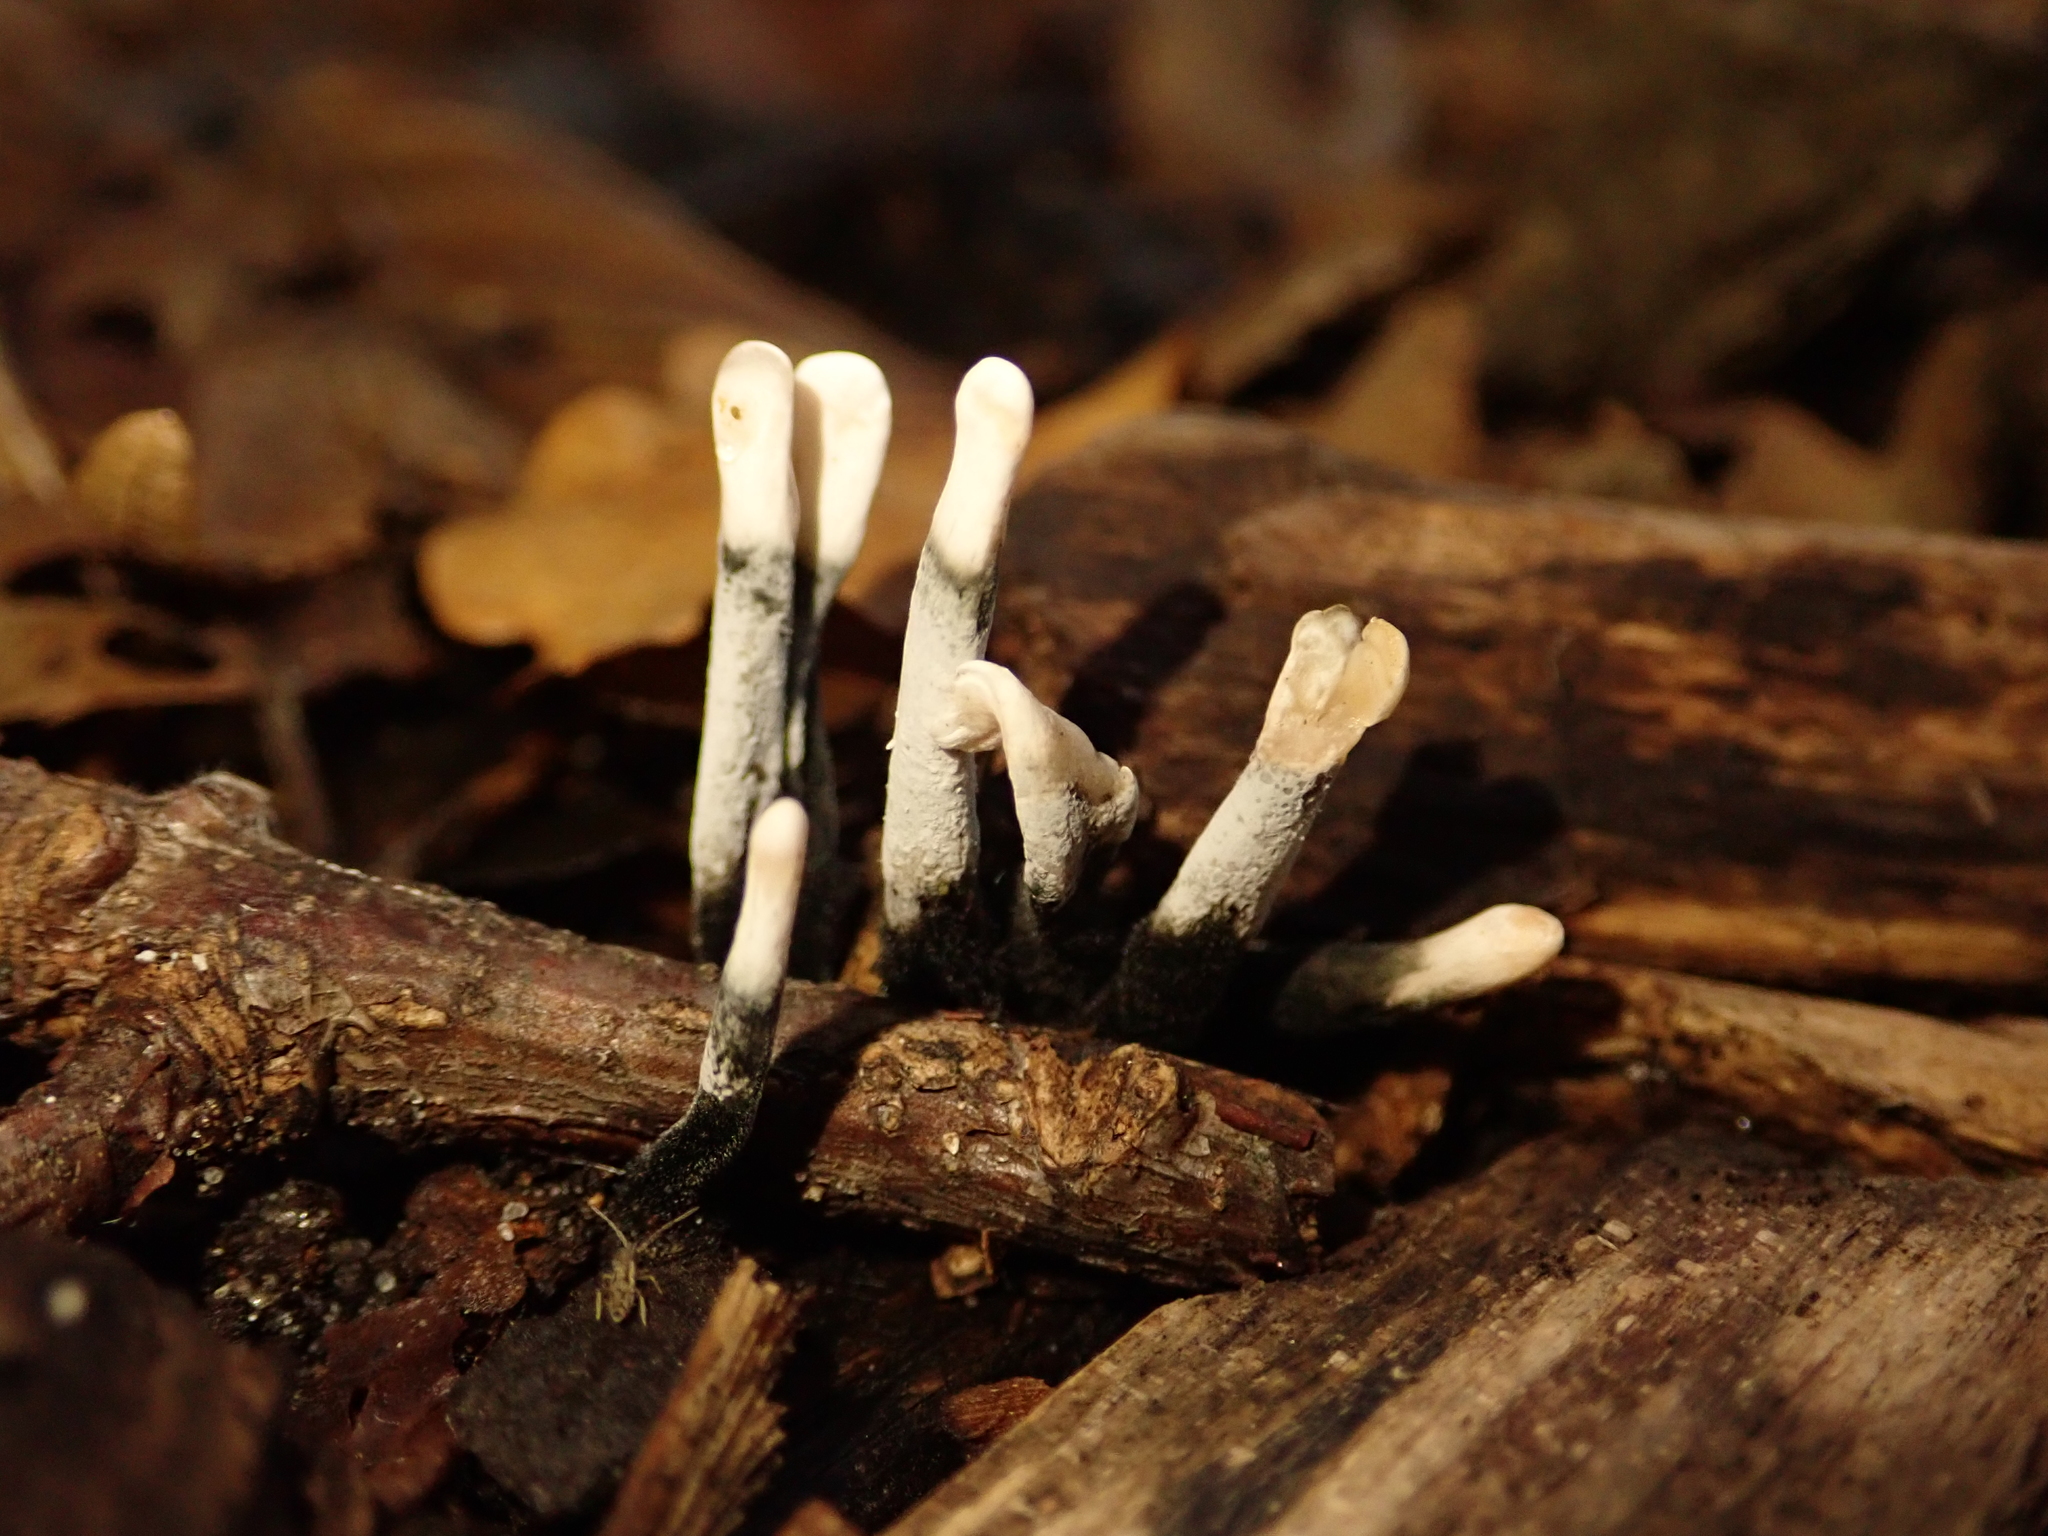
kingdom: Fungi
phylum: Ascomycota
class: Sordariomycetes
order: Xylariales
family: Xylariaceae
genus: Xylaria
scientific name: Xylaria hypoxylon
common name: Candle-snuff fungus
